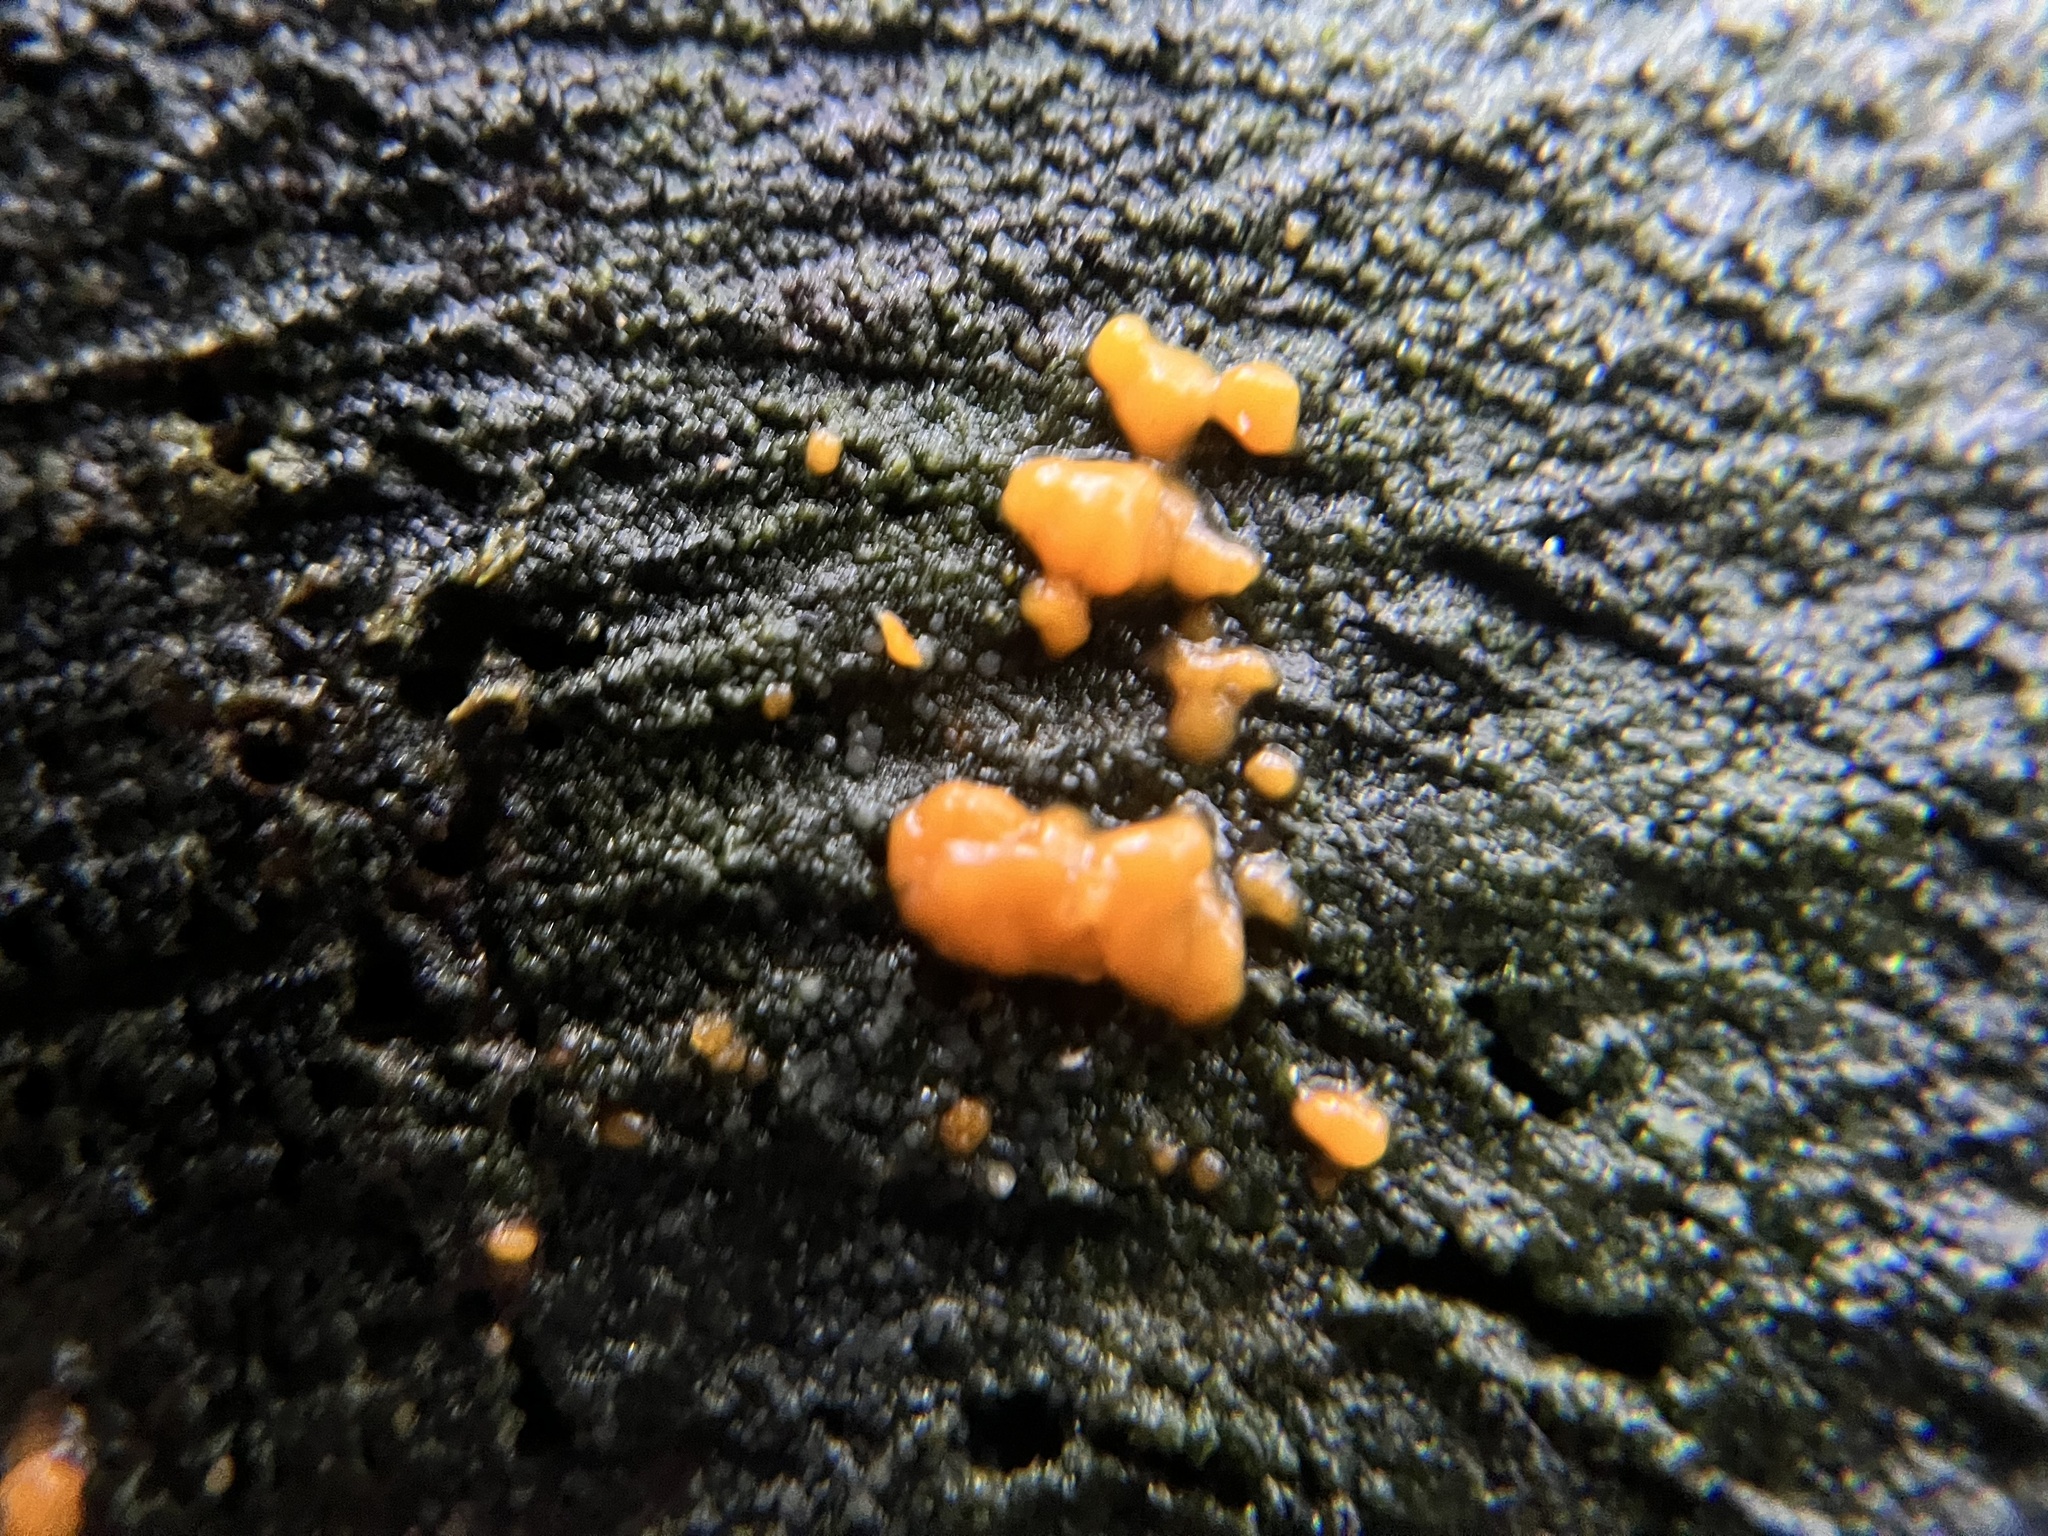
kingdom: Fungi
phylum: Basidiomycota
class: Dacrymycetes
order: Dacrymycetales
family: Dacrymycetaceae
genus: Dacrymyces
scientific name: Dacrymyces stillatus
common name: Common jelly spot
